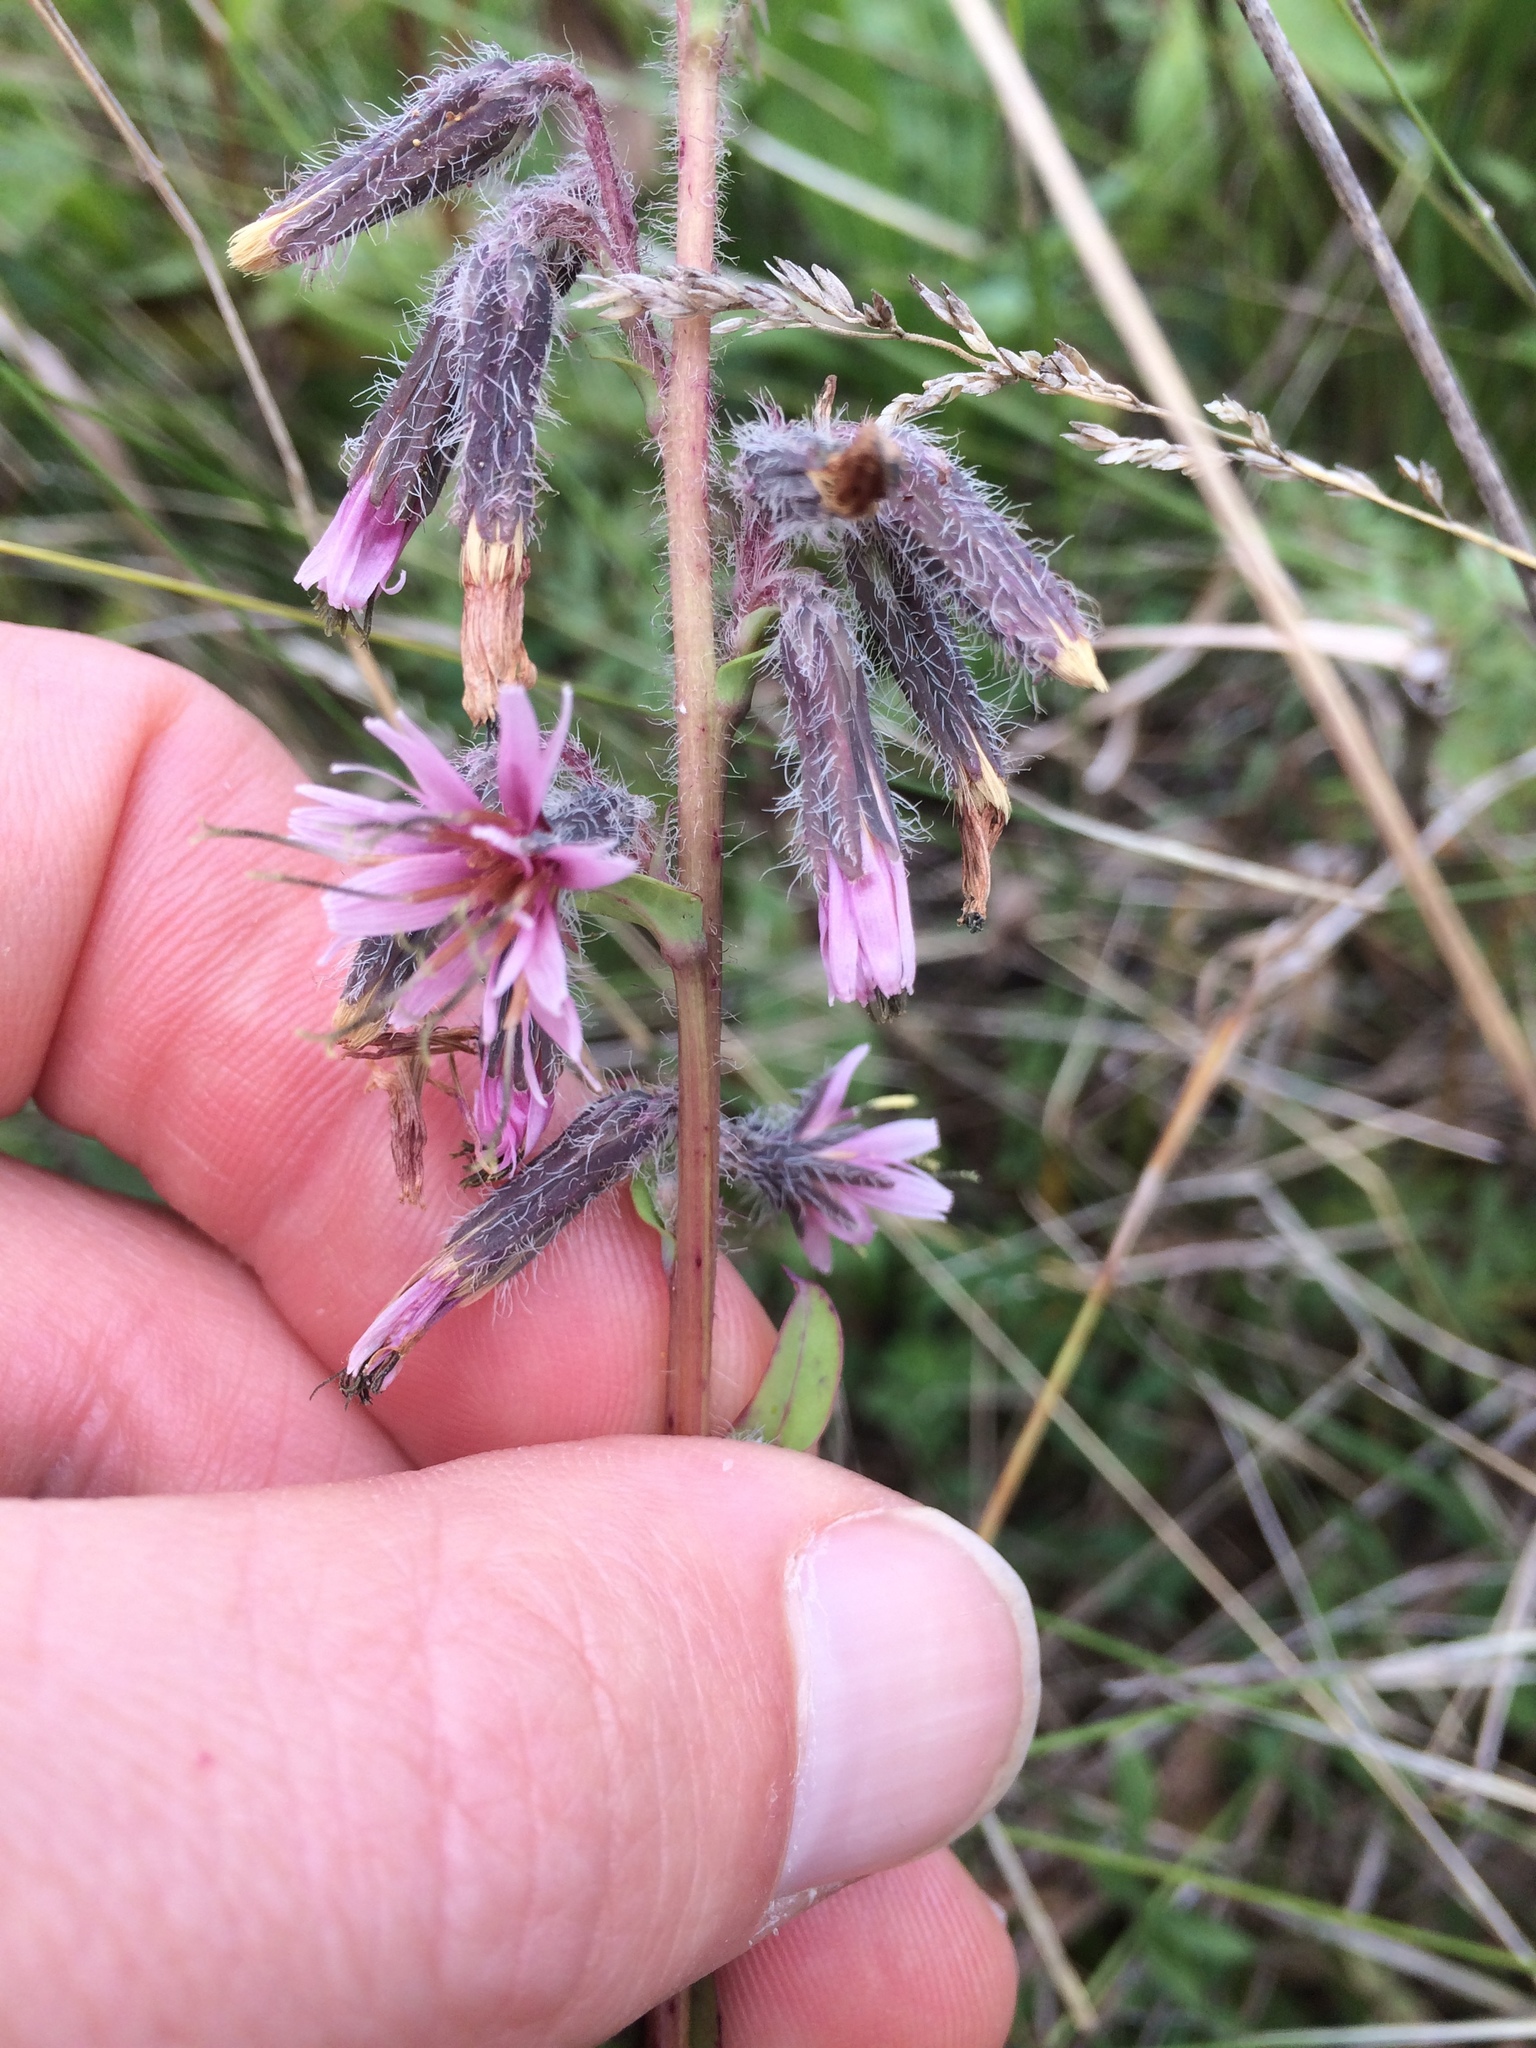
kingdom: Plantae
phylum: Tracheophyta
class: Magnoliopsida
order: Asterales
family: Asteraceae
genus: Nabalus
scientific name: Nabalus racemosus
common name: Glaucous white lettuce
